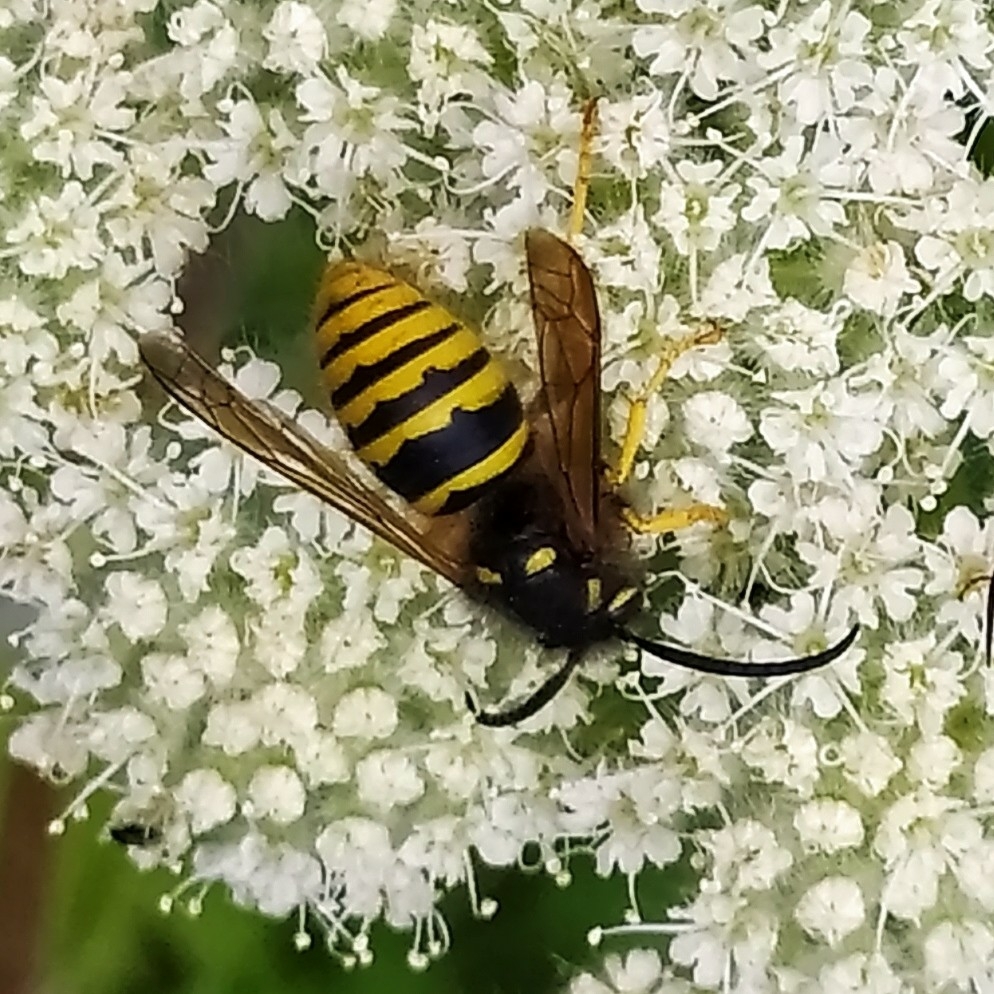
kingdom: Animalia
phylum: Arthropoda
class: Insecta
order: Hymenoptera
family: Vespidae
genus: Dolichovespula
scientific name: Dolichovespula sylvestris
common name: Tree wasp
